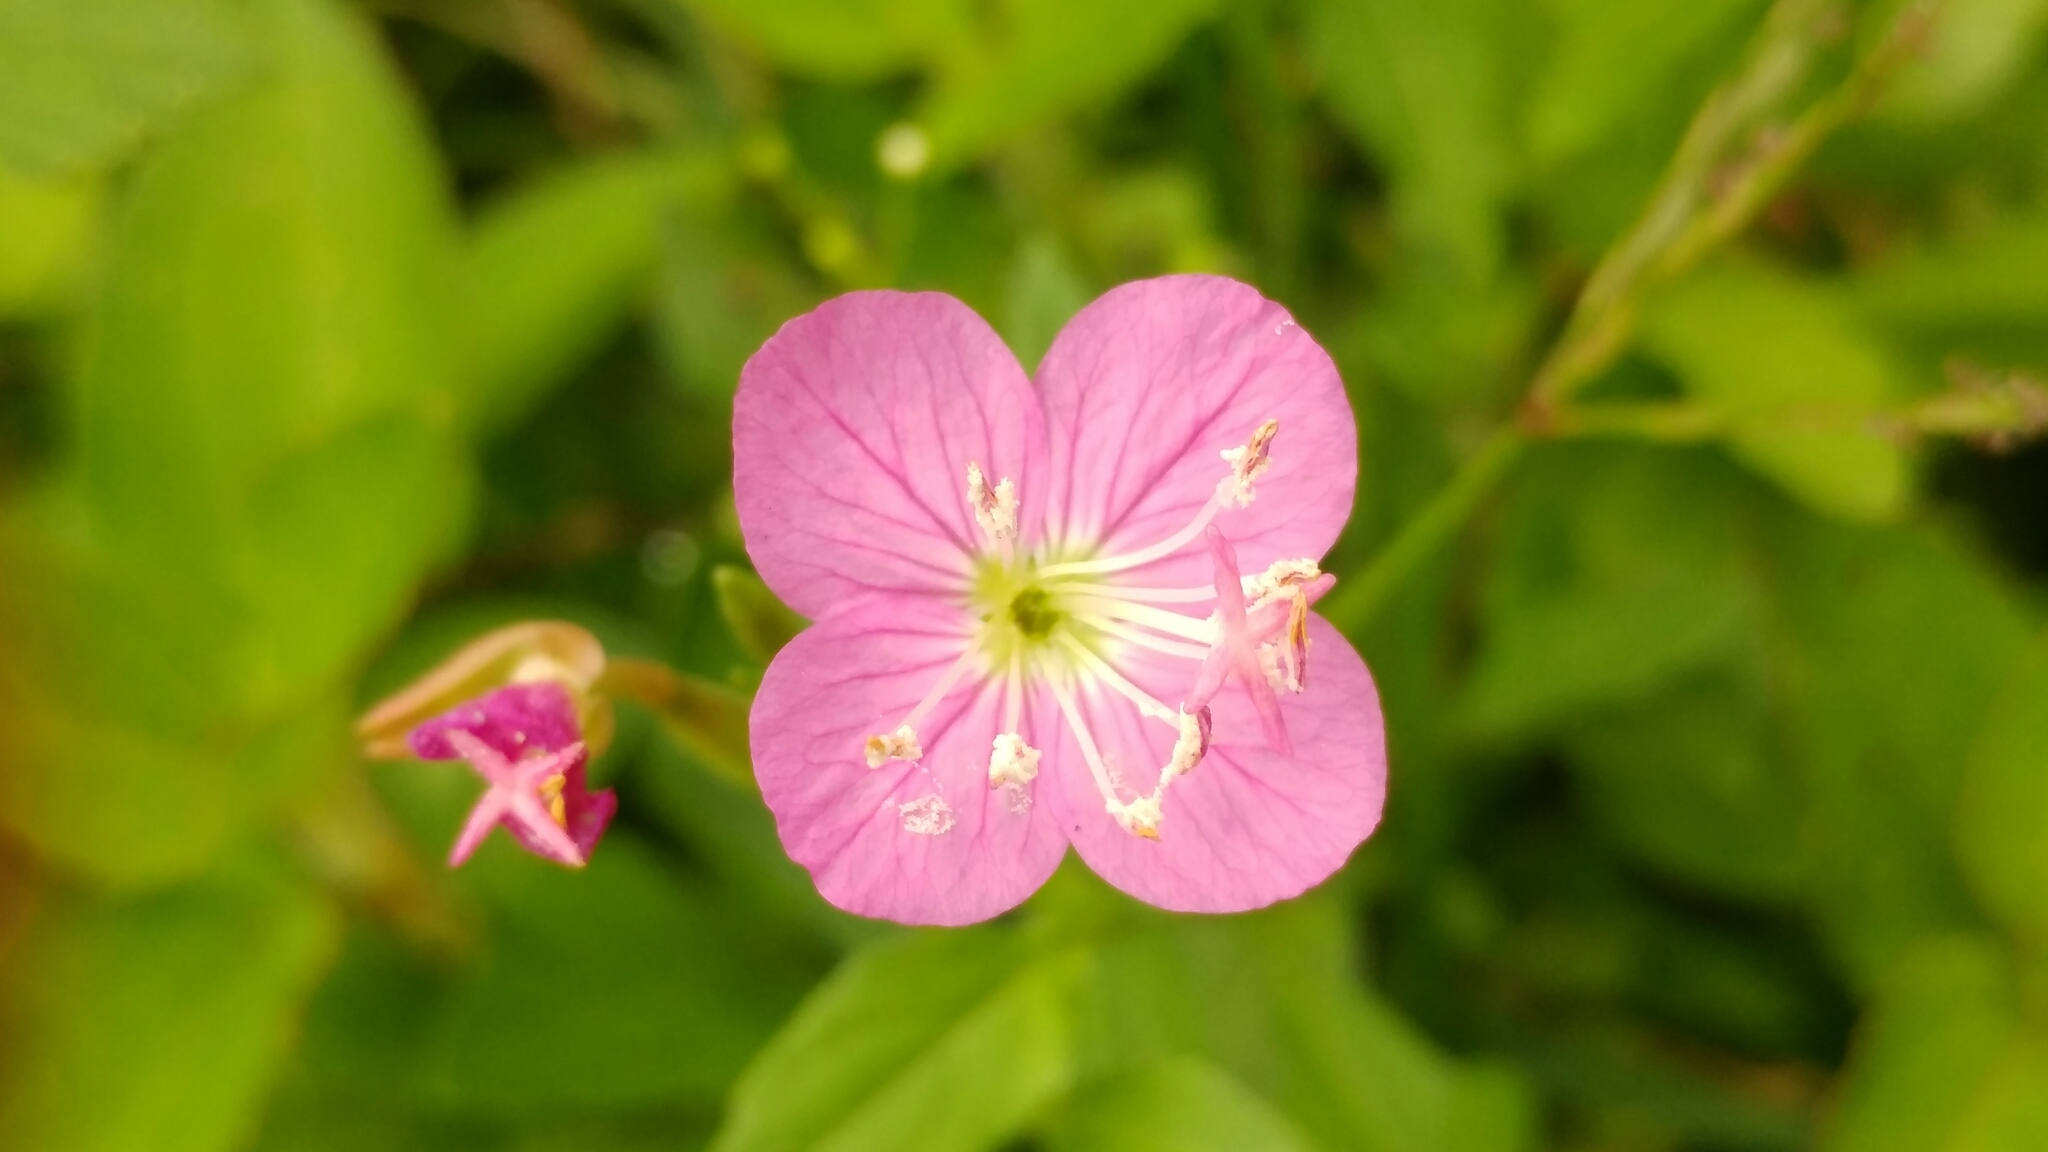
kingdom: Plantae
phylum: Tracheophyta
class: Magnoliopsida
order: Myrtales
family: Onagraceae
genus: Oenothera
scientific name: Oenothera rosea
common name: Rosy evening-primrose
